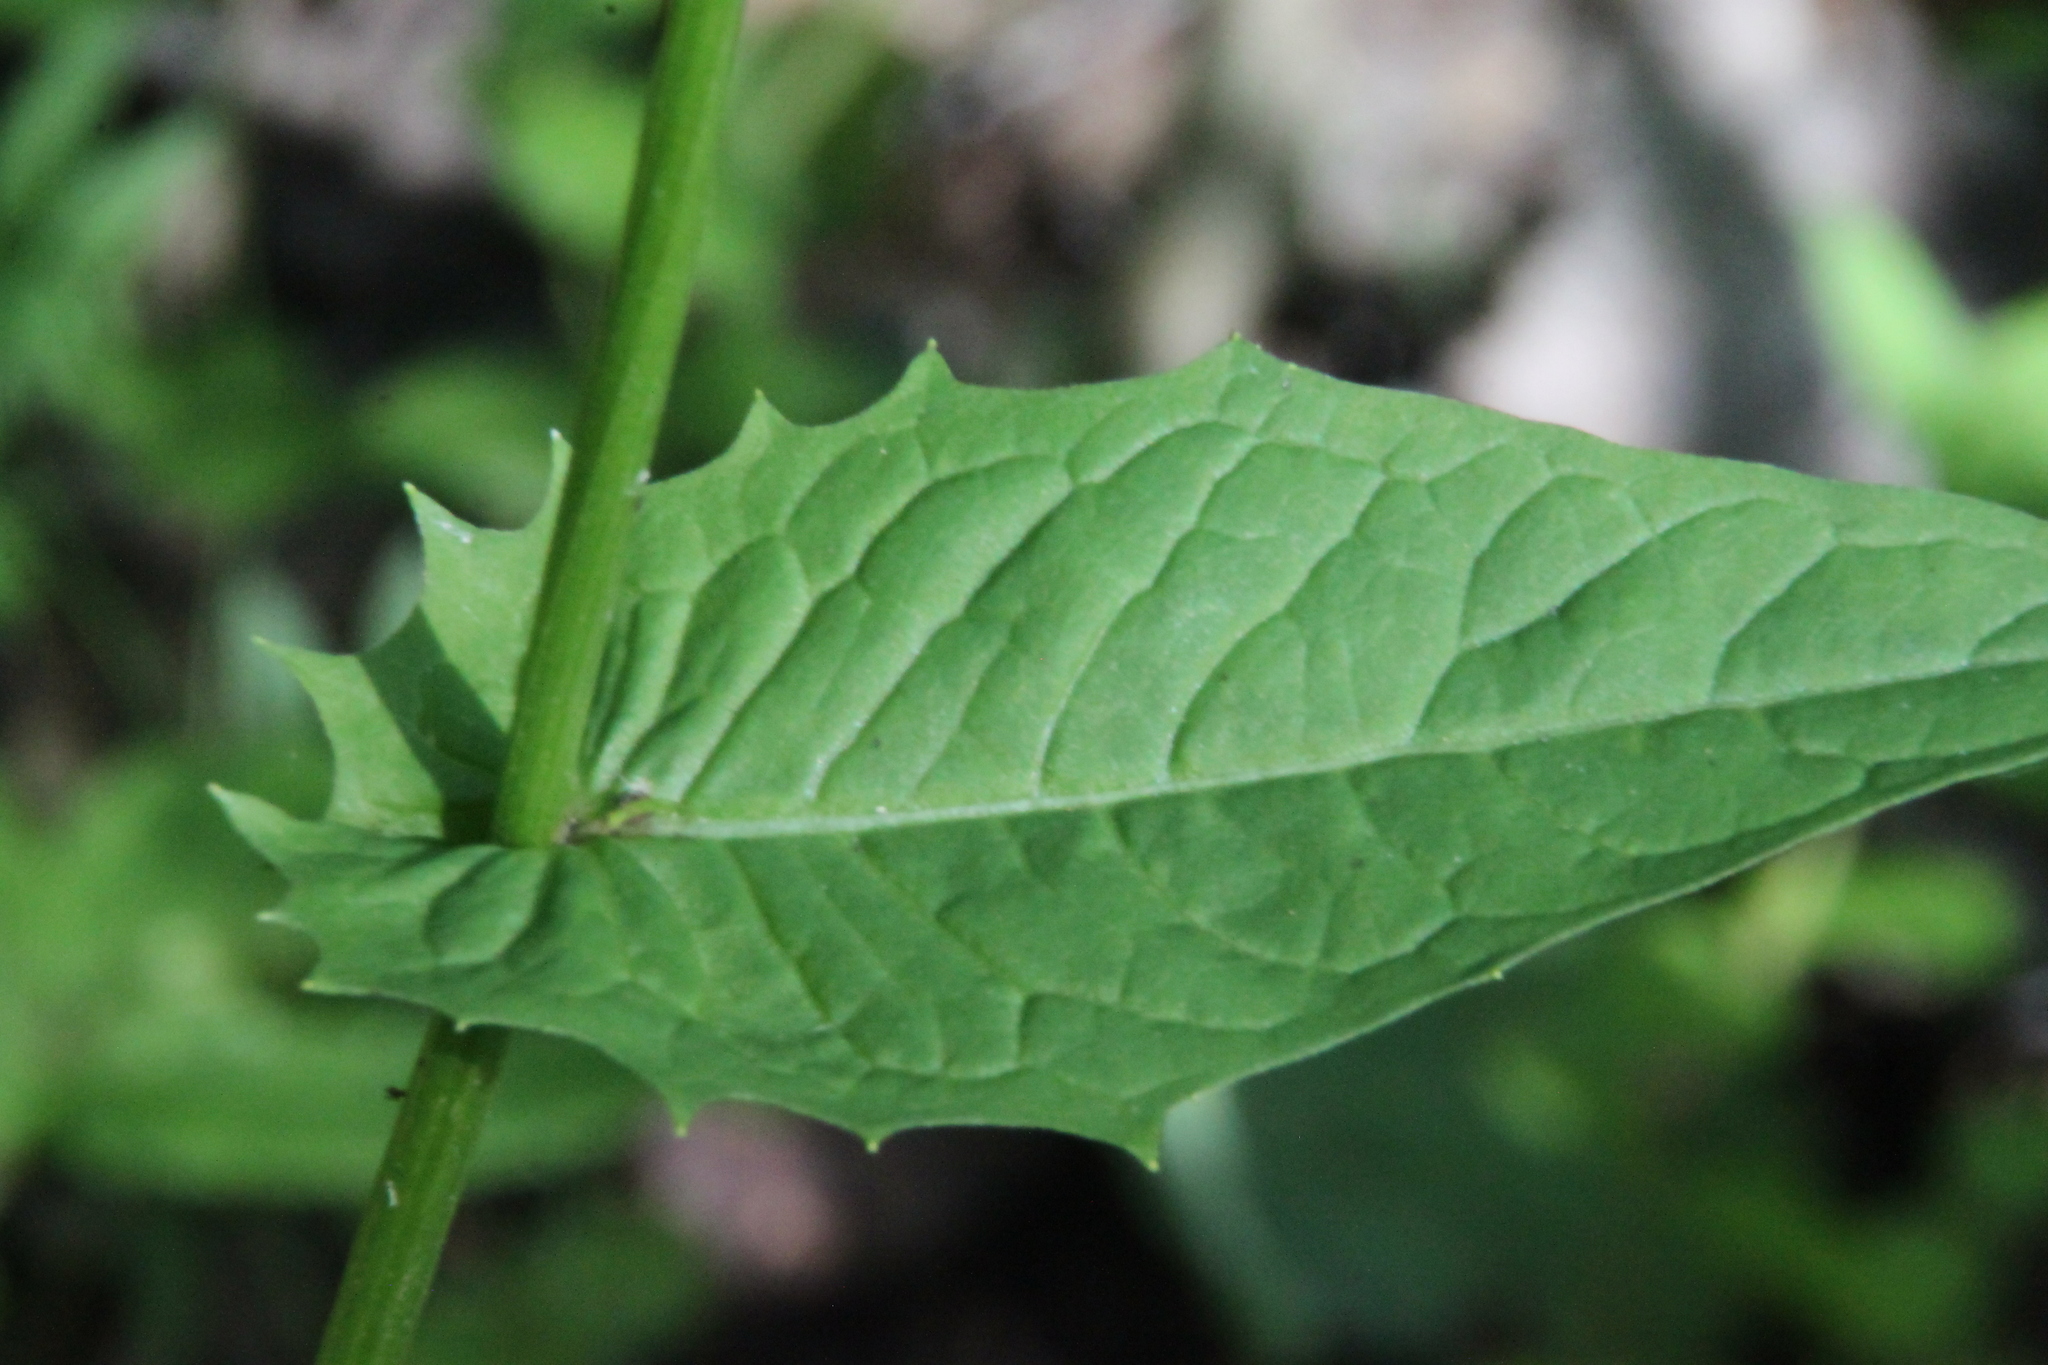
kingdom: Plantae
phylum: Tracheophyta
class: Magnoliopsida
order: Asterales
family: Asteraceae
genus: Crepis
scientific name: Crepis paludosa
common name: Marsh hawk's-beard
